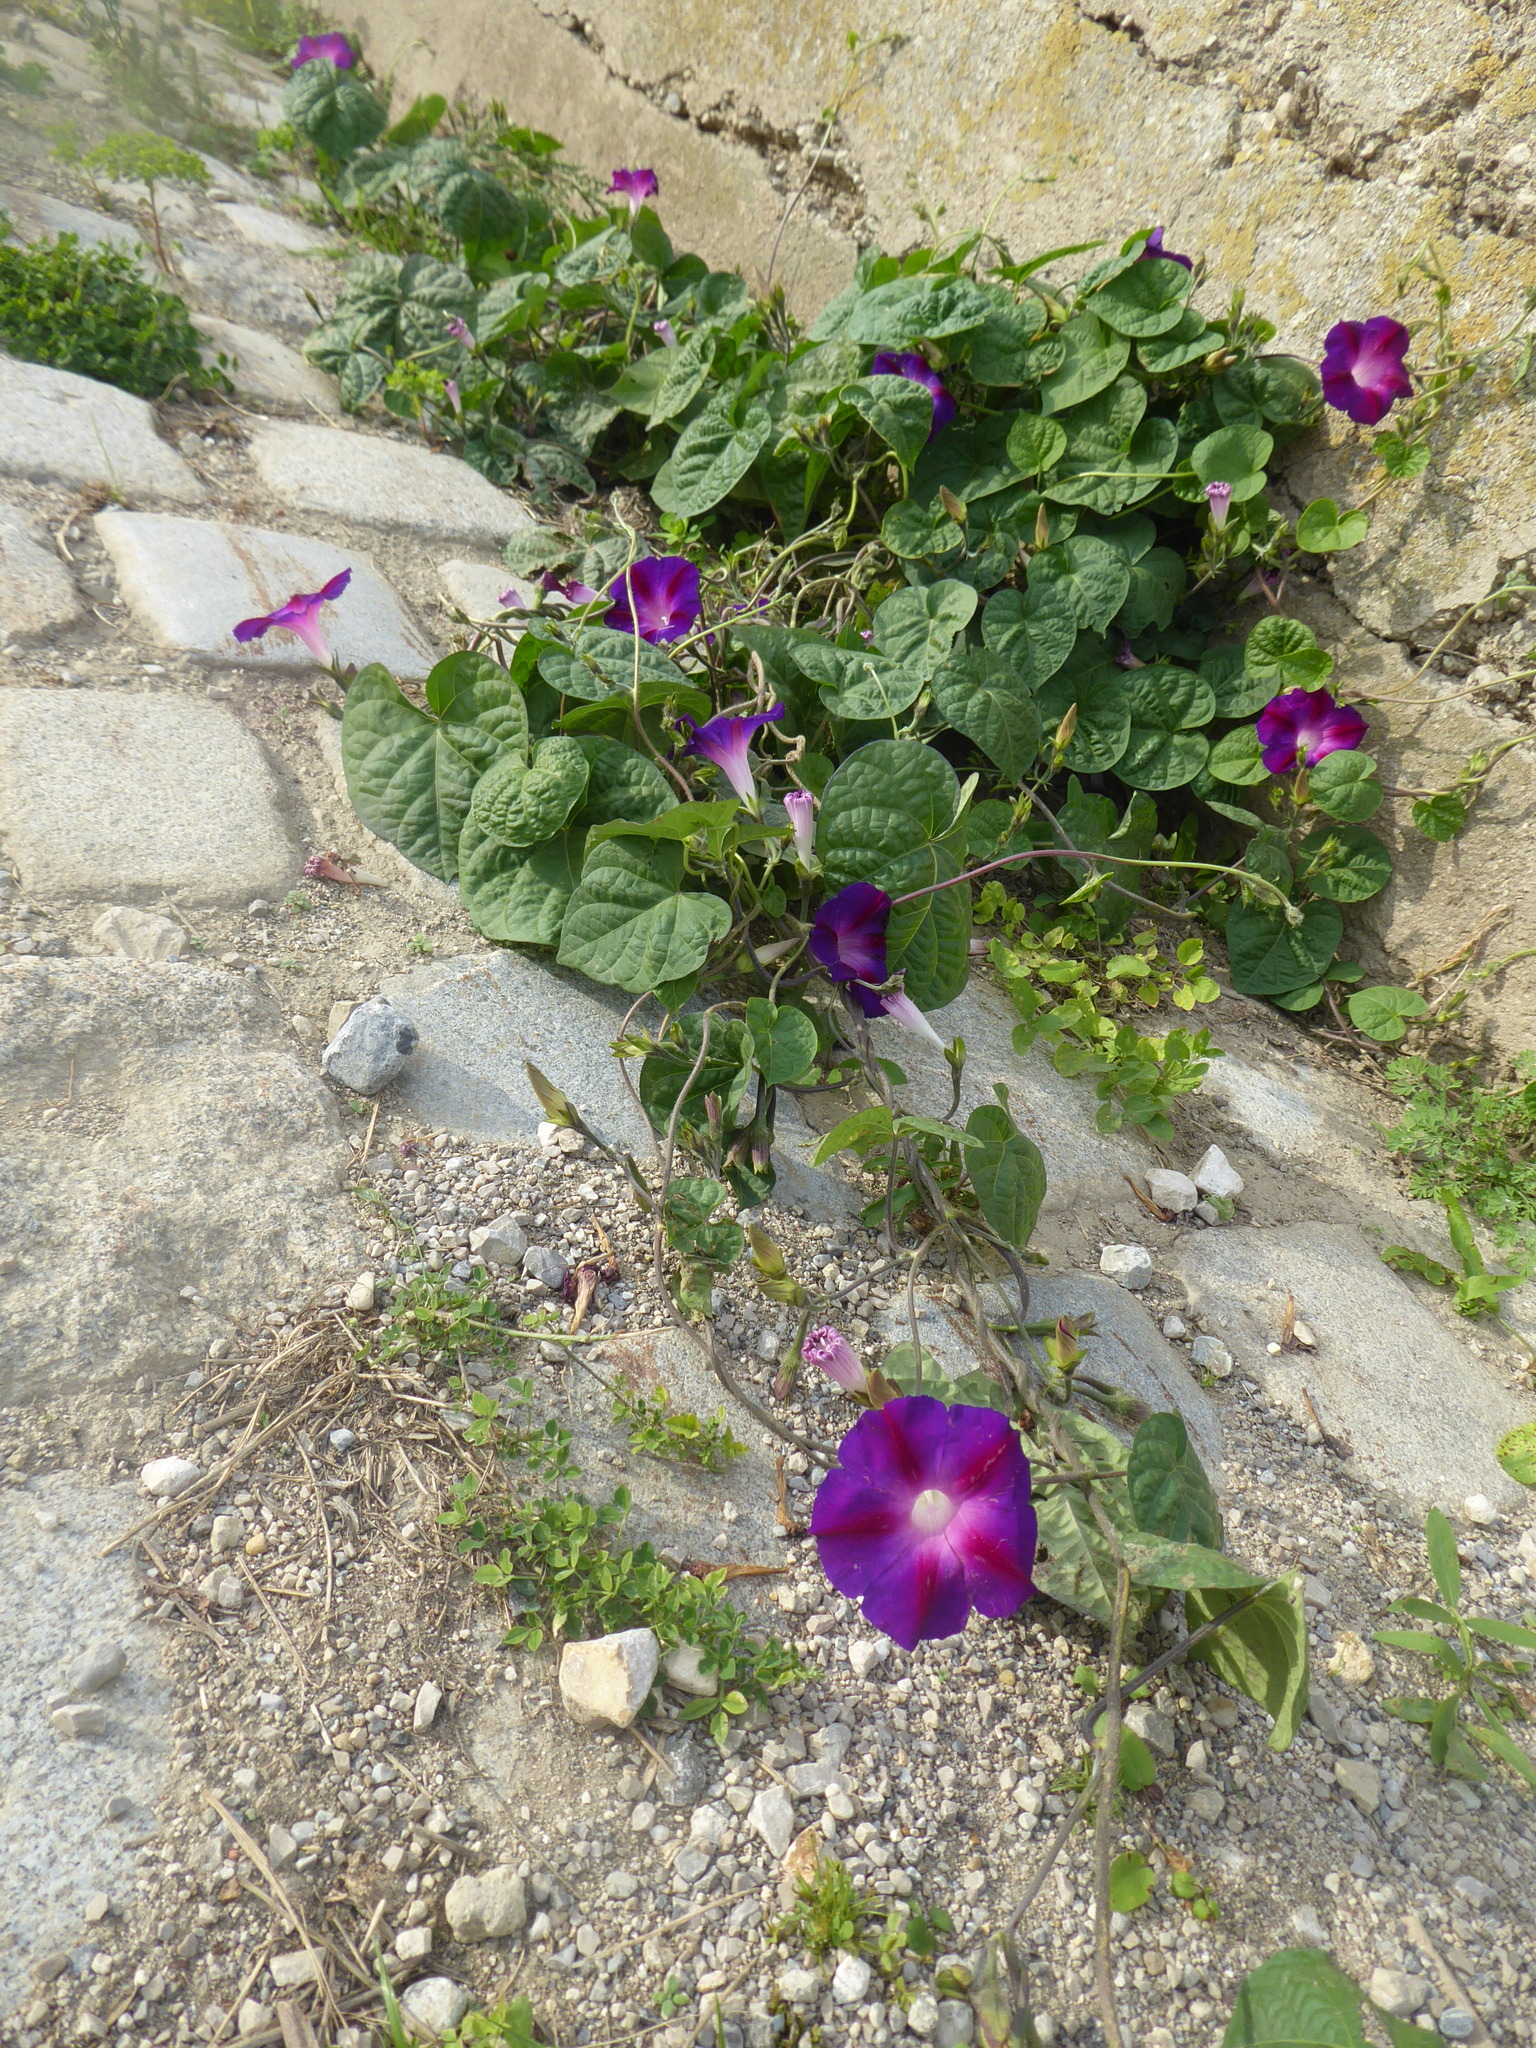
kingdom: Plantae
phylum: Tracheophyta
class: Magnoliopsida
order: Solanales
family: Convolvulaceae
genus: Ipomoea
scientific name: Ipomoea purpurea
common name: Common morning-glory
